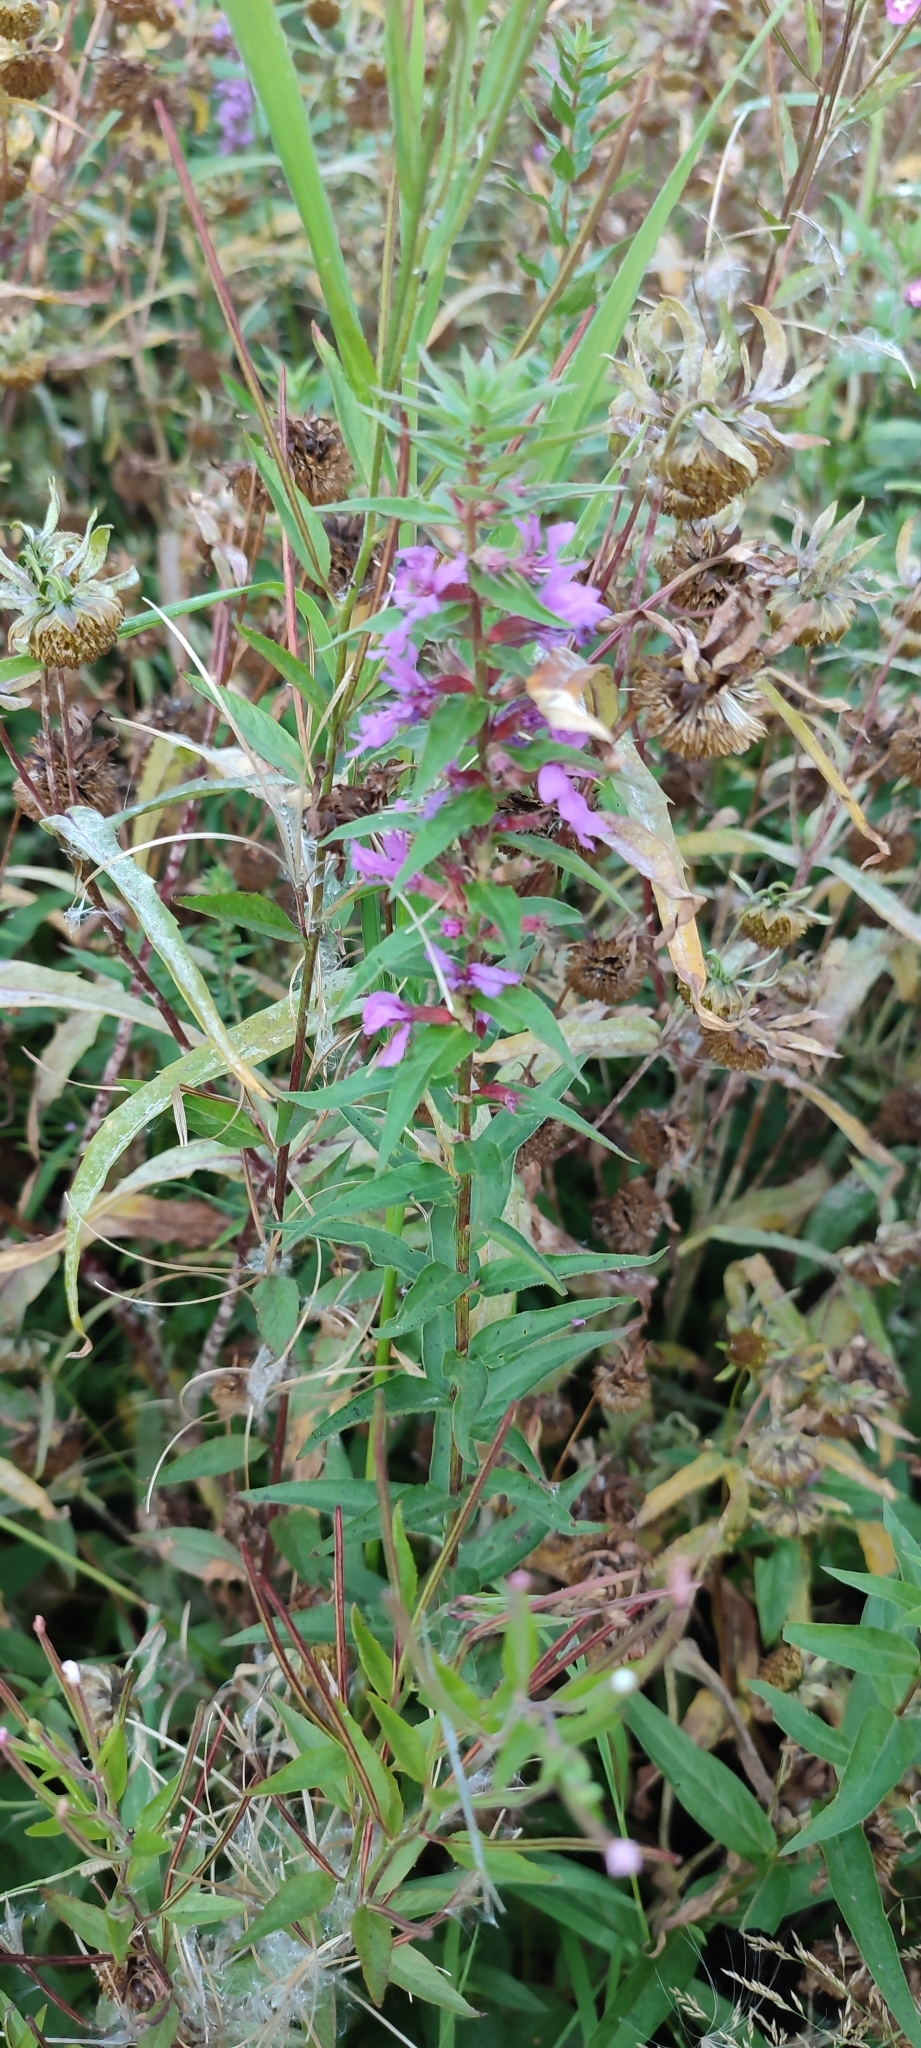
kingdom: Plantae
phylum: Tracheophyta
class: Magnoliopsida
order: Myrtales
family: Lythraceae
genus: Lythrum
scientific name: Lythrum salicaria
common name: Purple loosestrife
